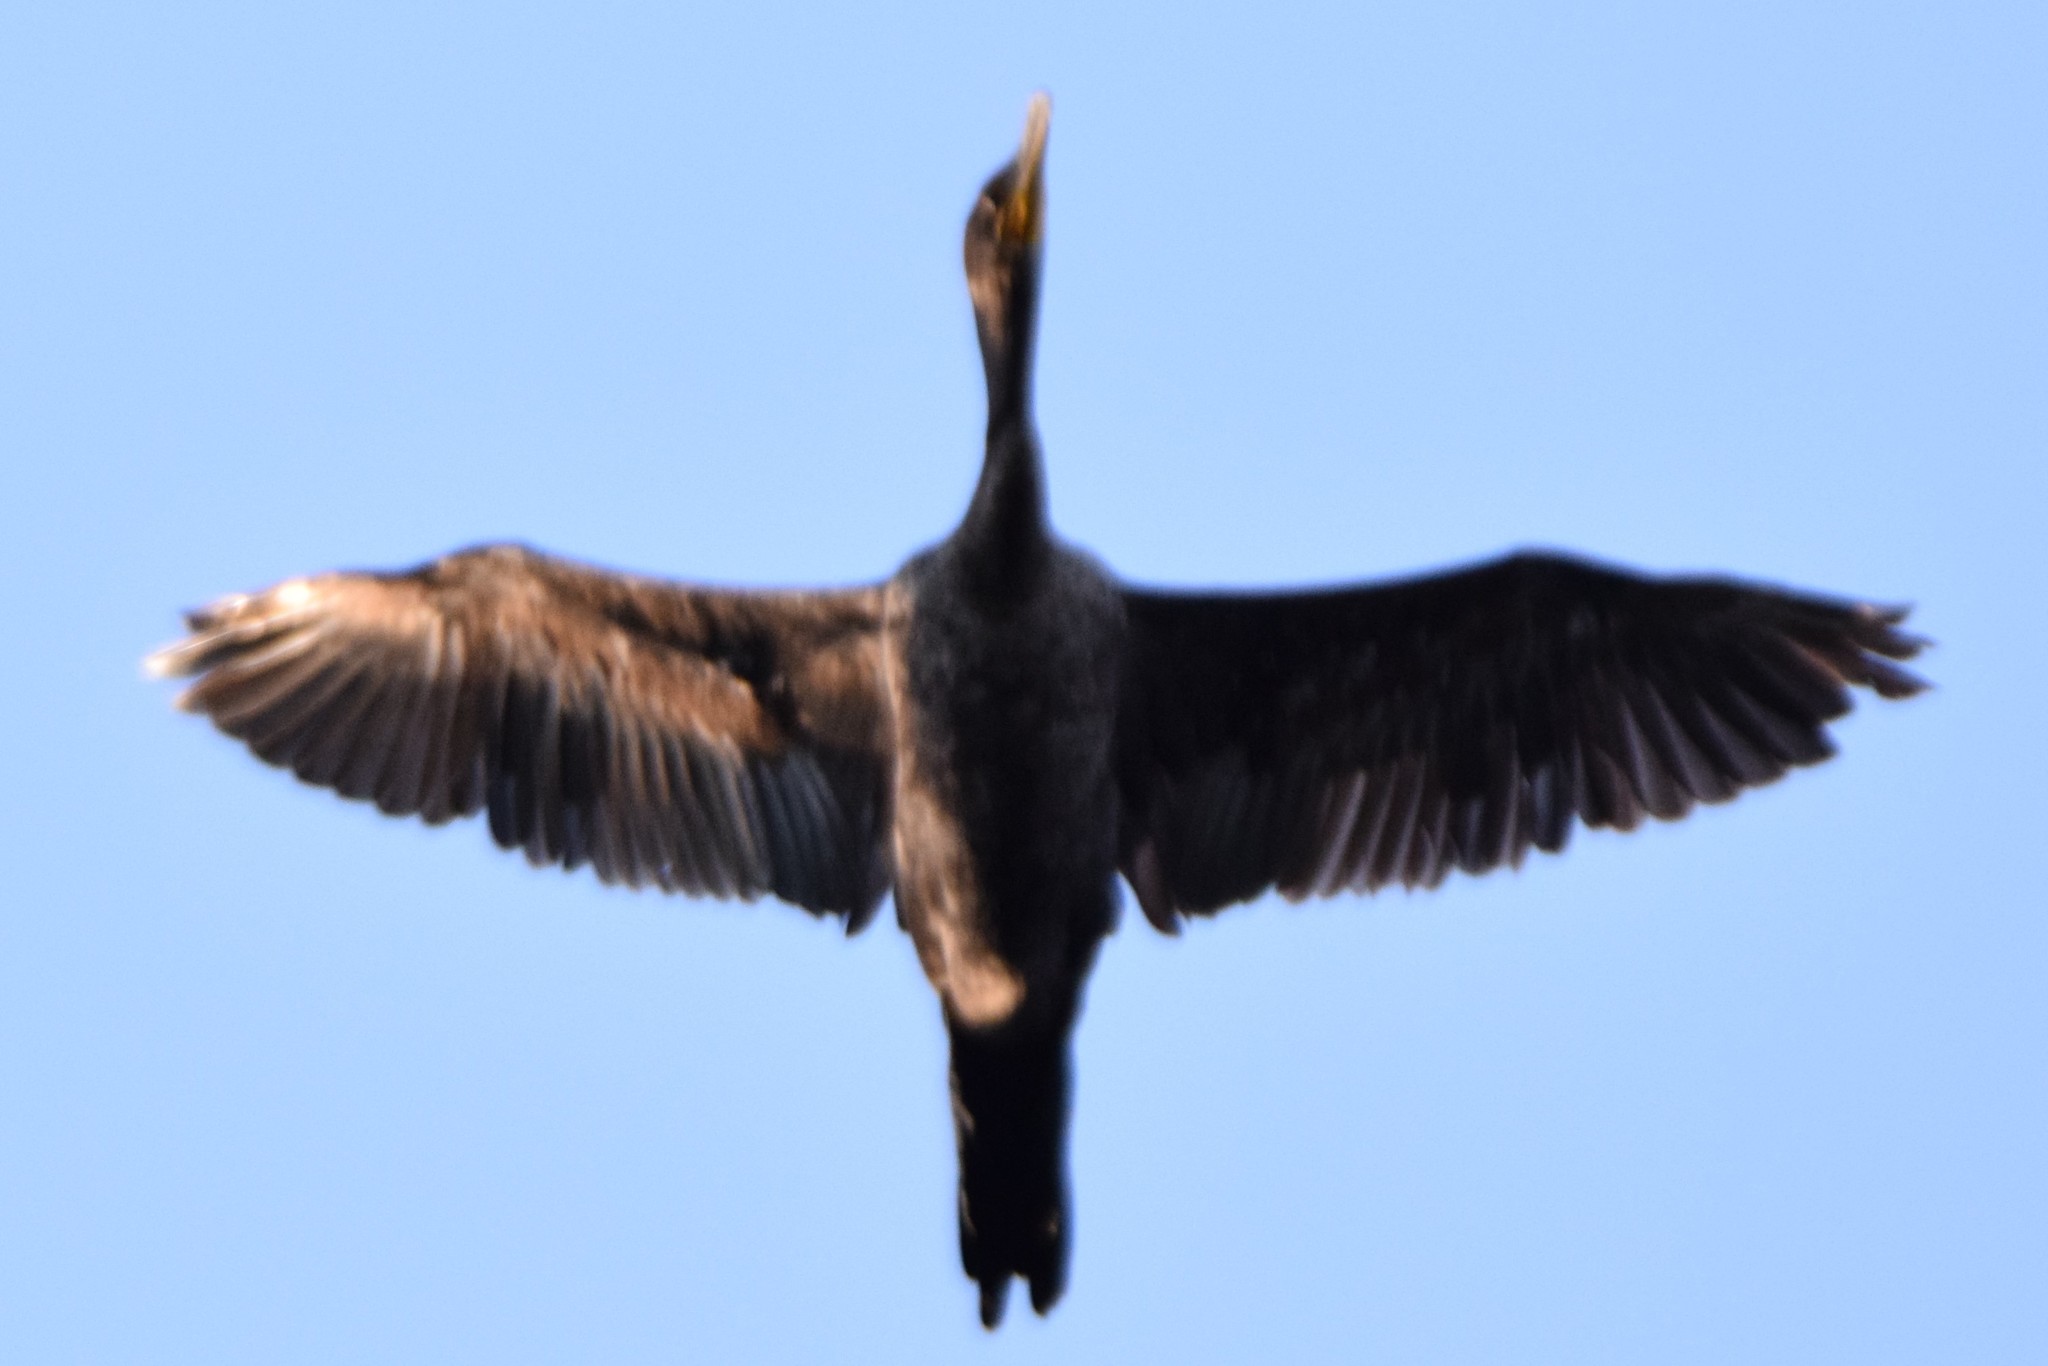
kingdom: Animalia
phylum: Chordata
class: Aves
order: Suliformes
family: Phalacrocoracidae
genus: Phalacrocorax
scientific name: Phalacrocorax auritus
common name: Double-crested cormorant
